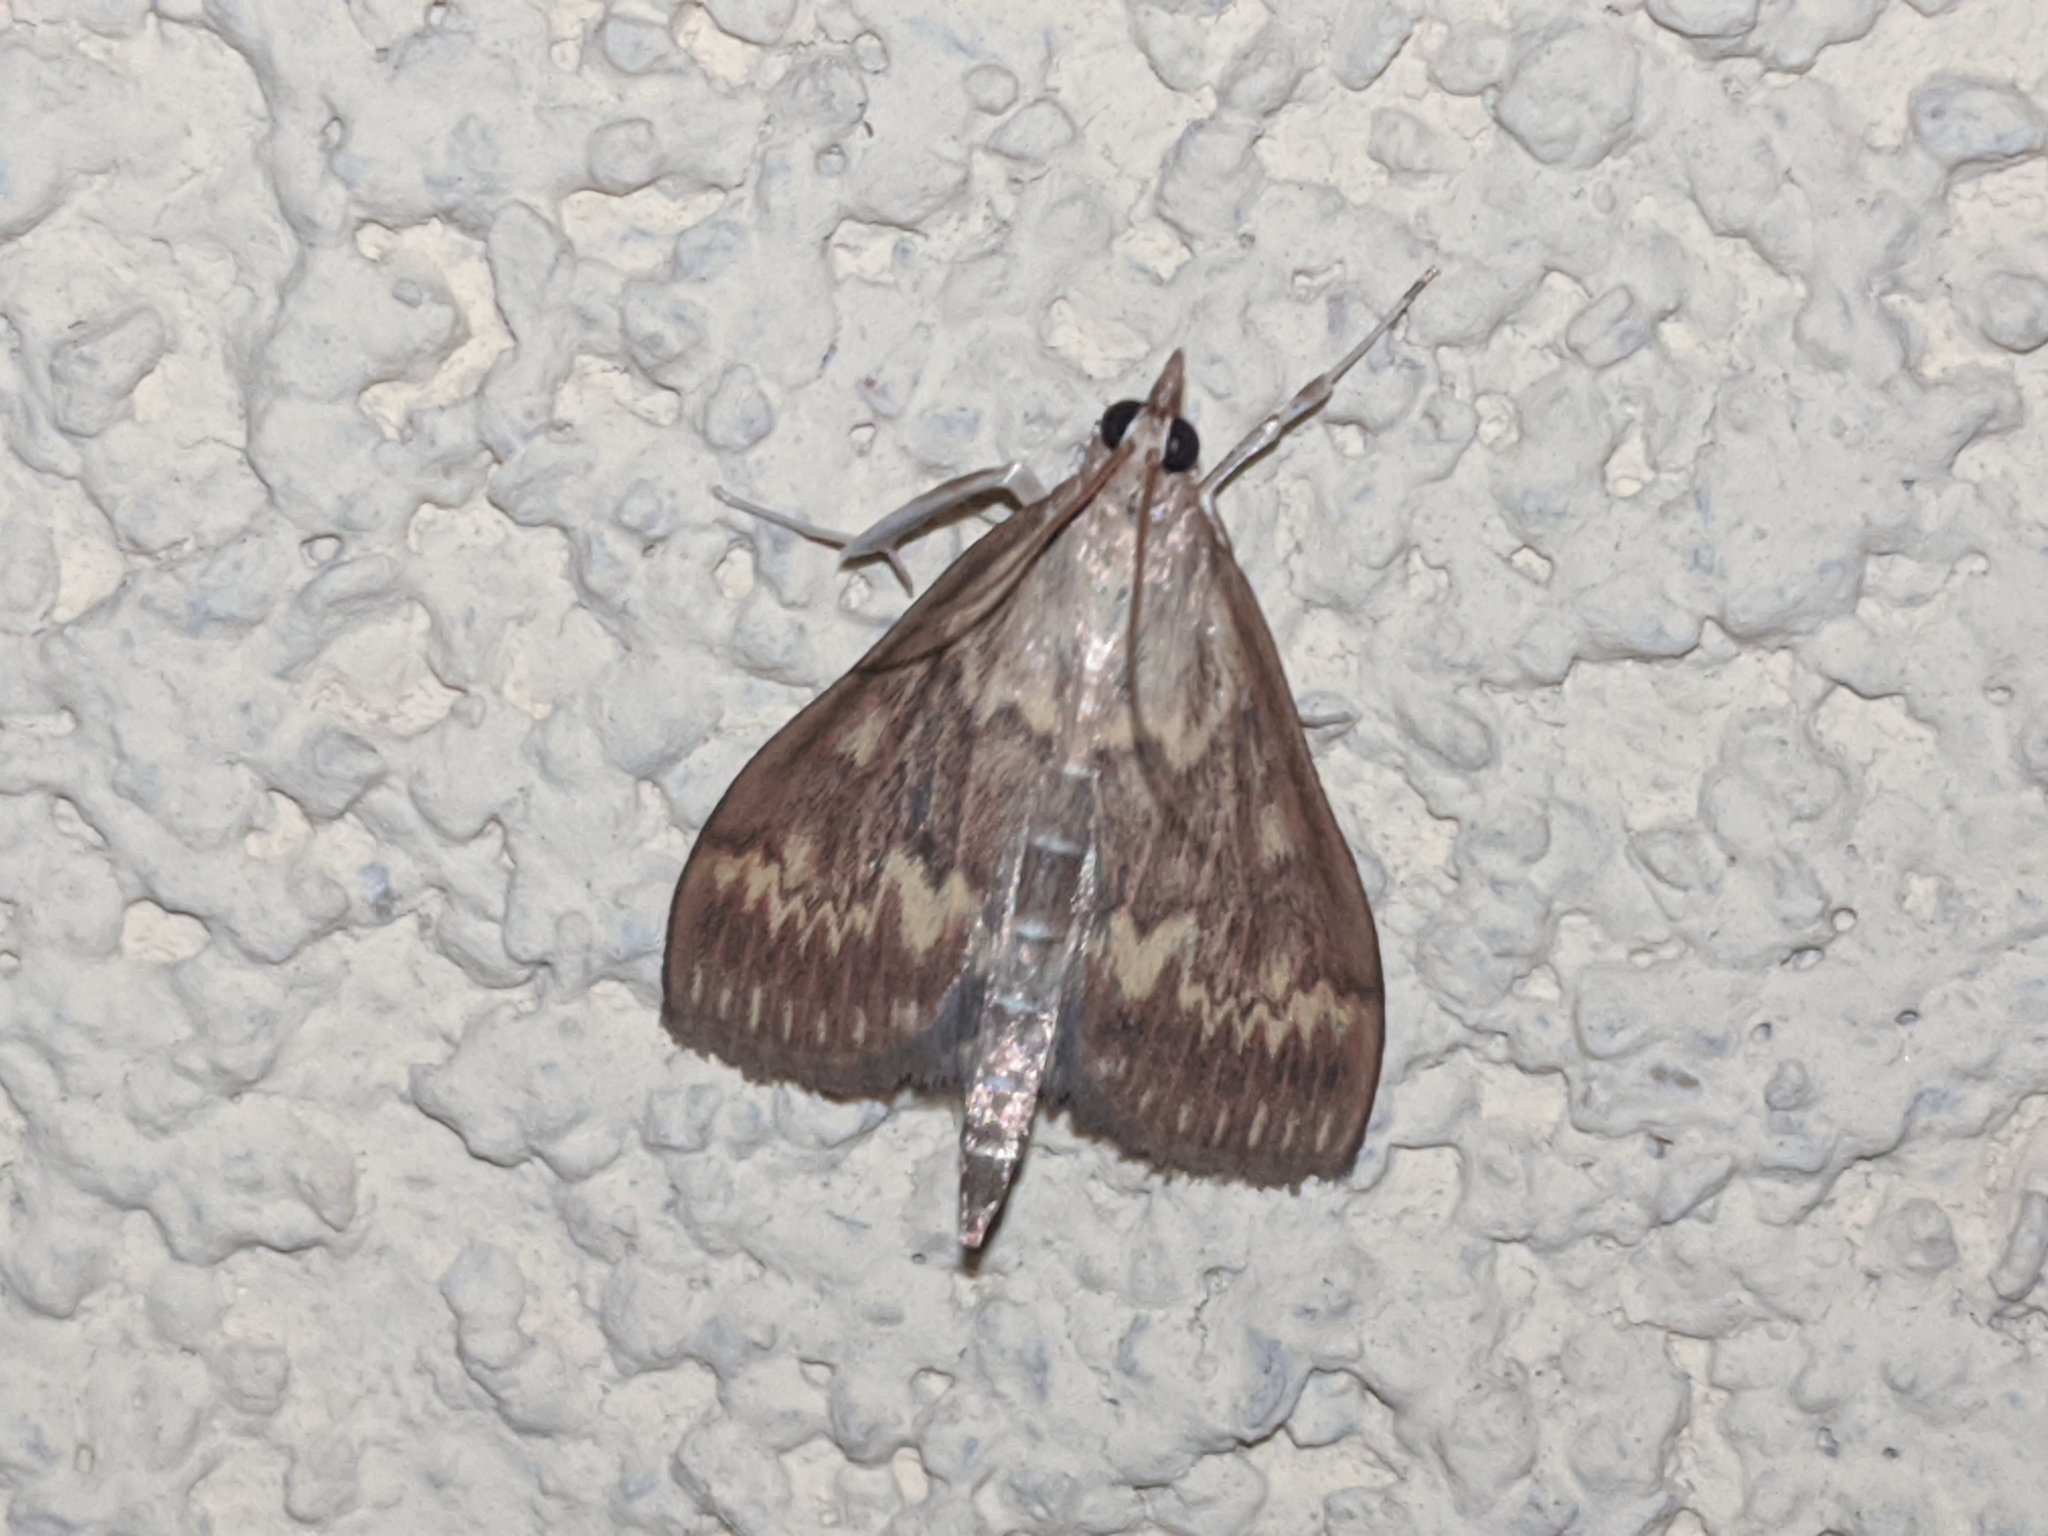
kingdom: Animalia
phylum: Arthropoda
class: Insecta
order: Lepidoptera
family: Crambidae
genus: Ostrinia
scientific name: Ostrinia nubilalis
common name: European corn borer
